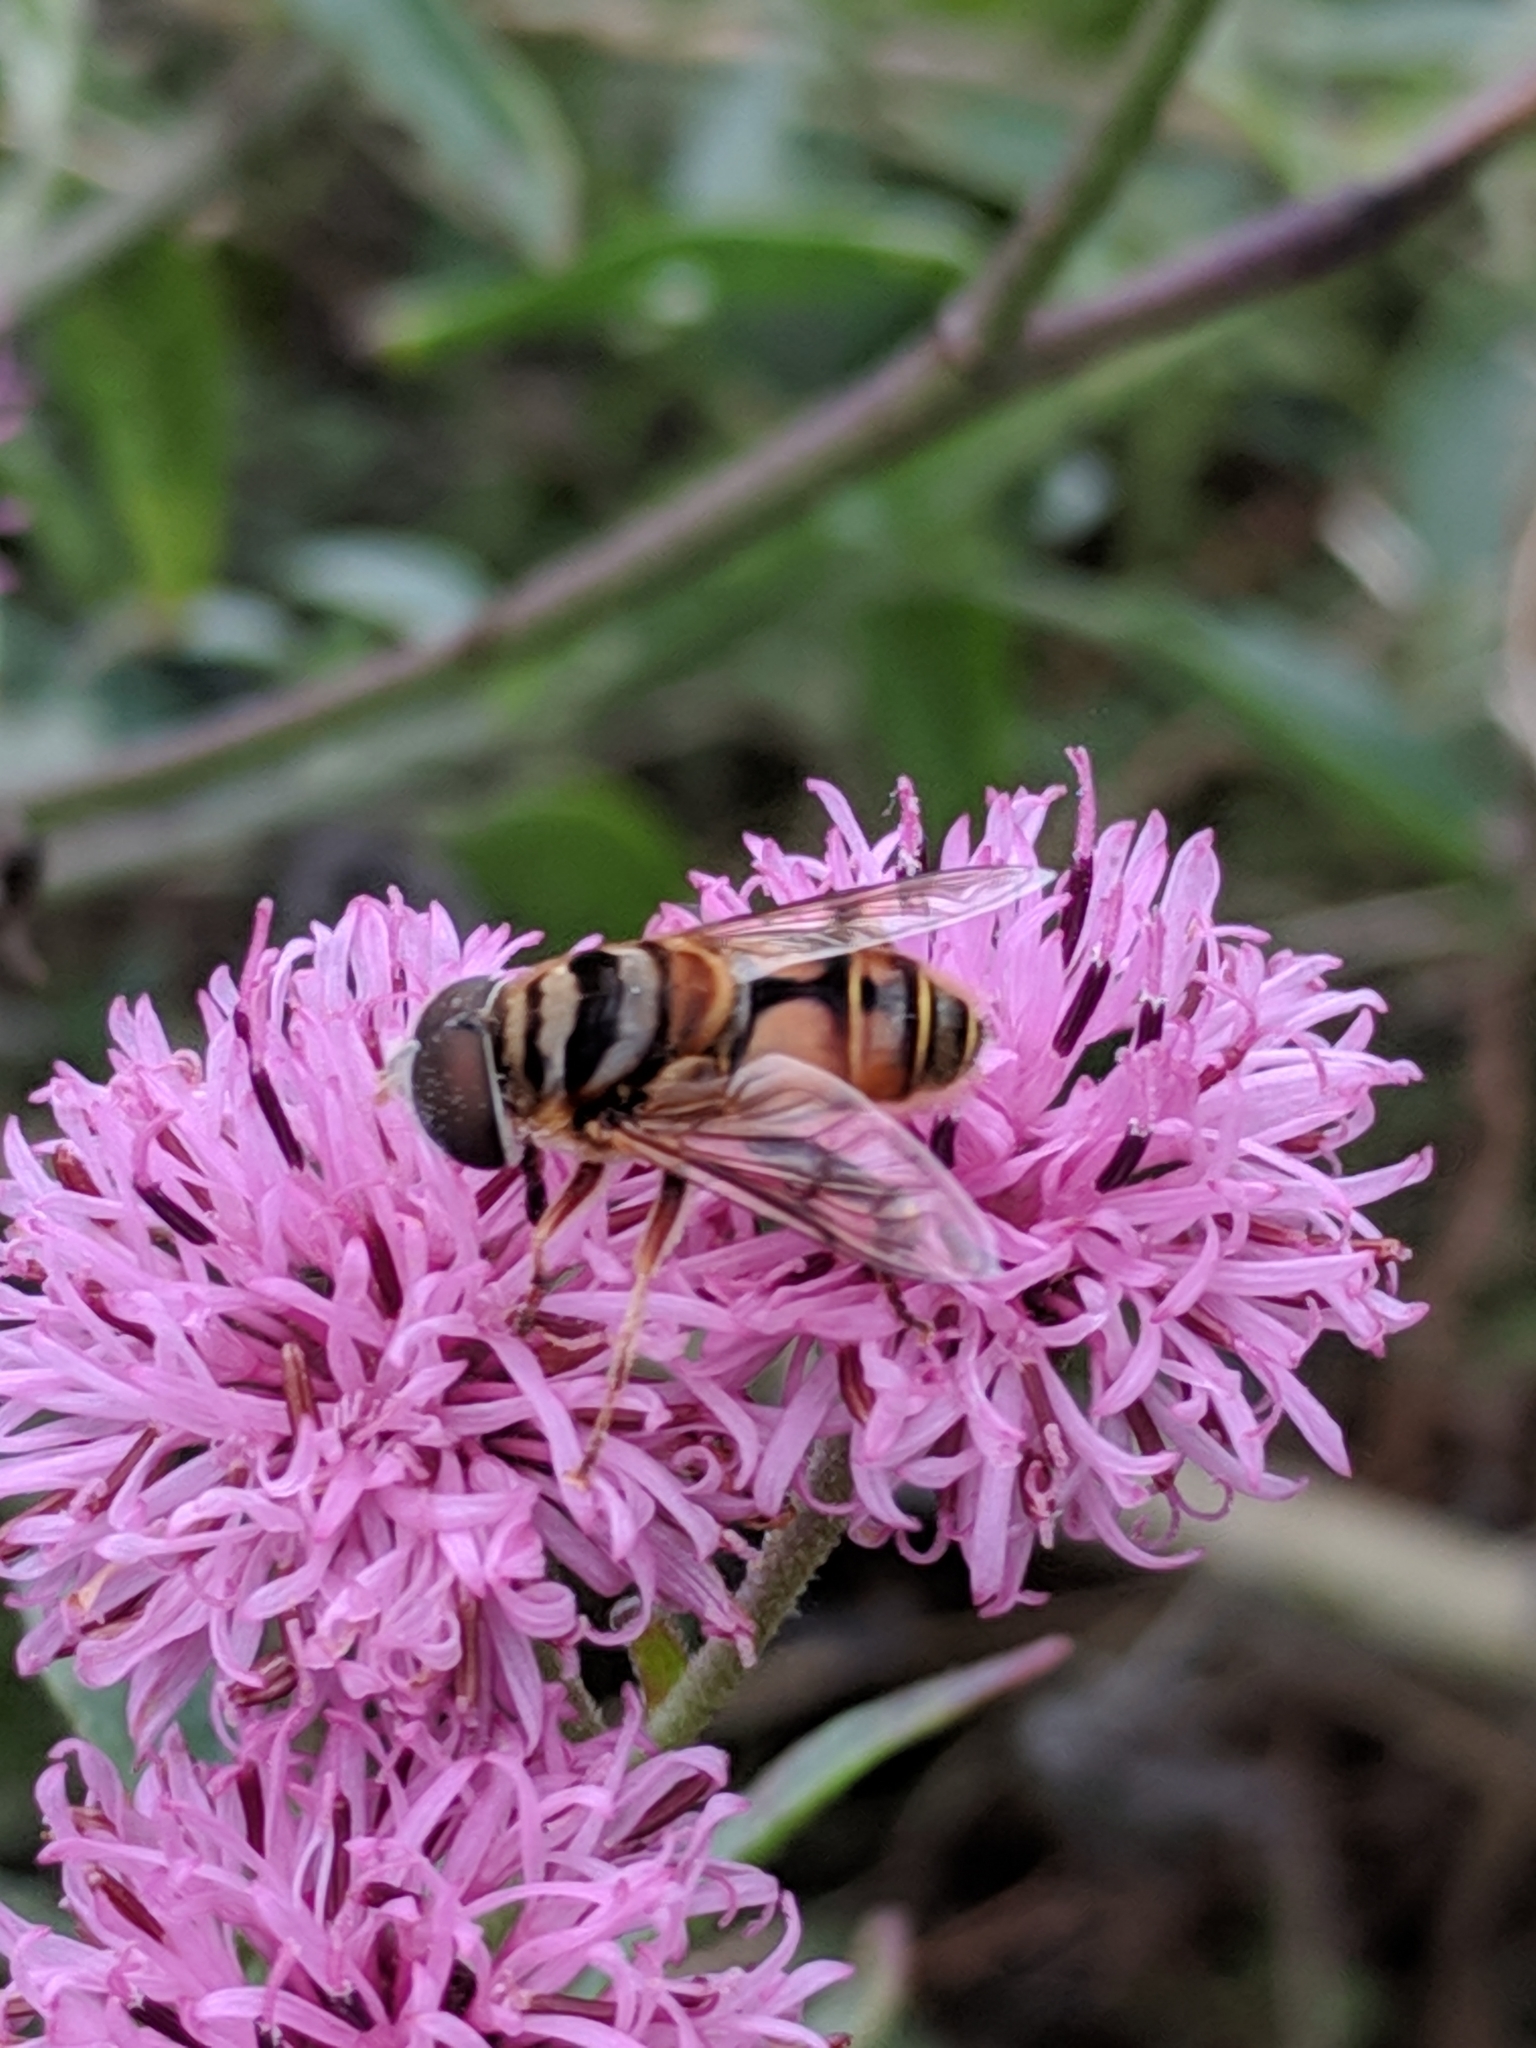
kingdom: Animalia
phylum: Arthropoda
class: Insecta
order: Diptera
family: Syrphidae
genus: Palpada
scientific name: Palpada vinetorum
